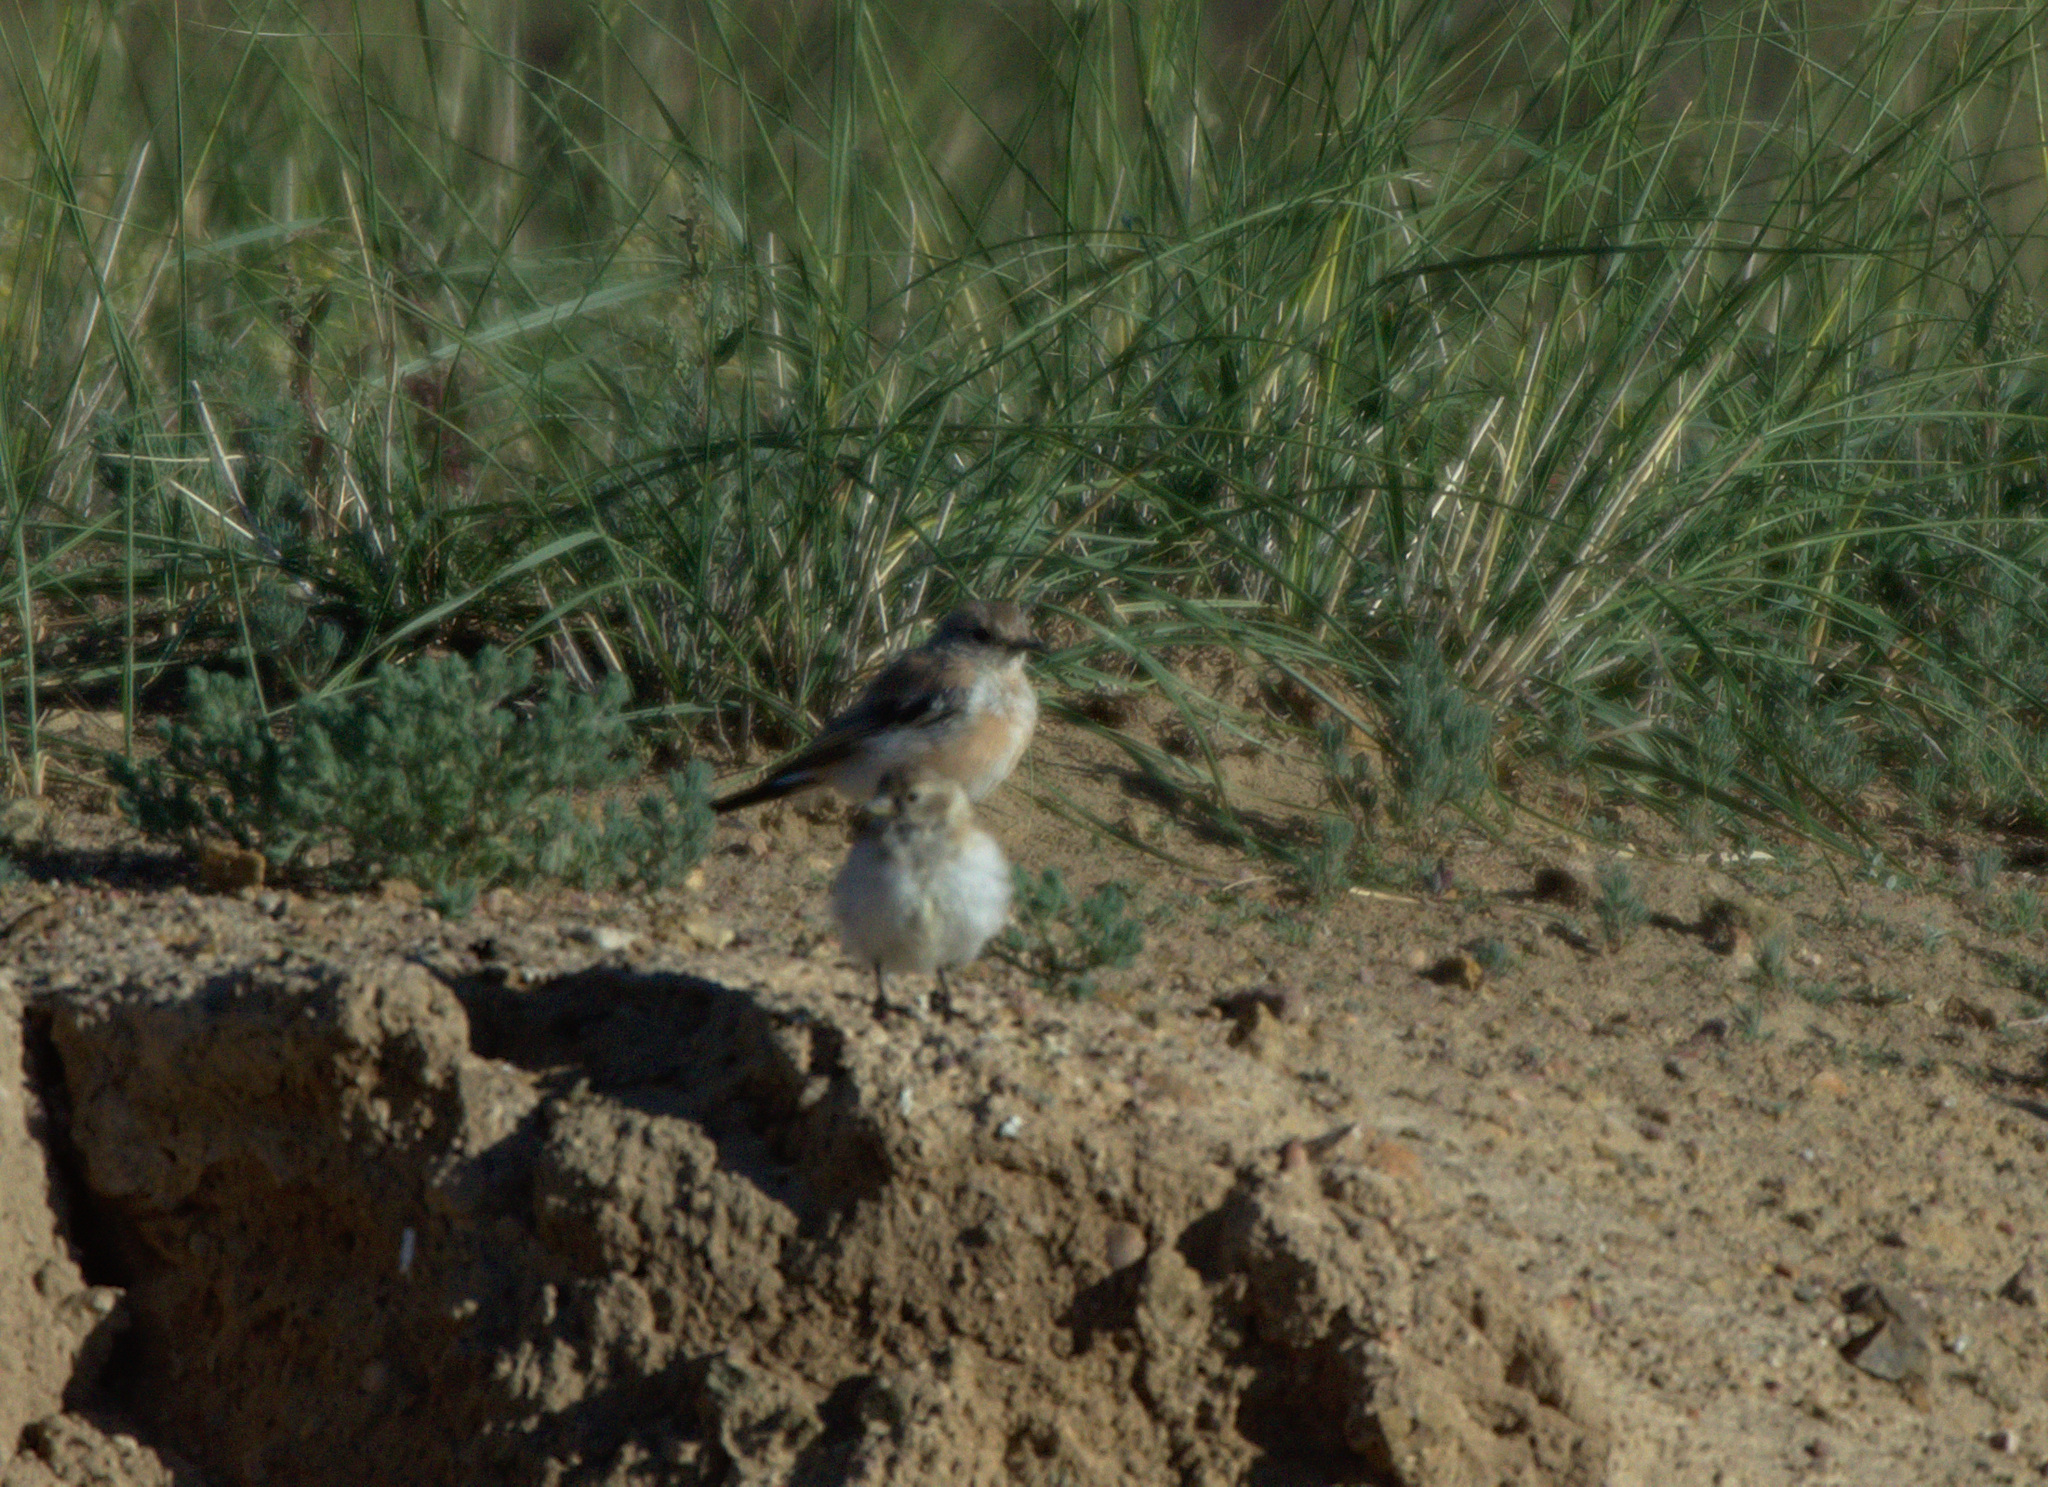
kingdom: Animalia
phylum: Chordata
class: Aves
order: Passeriformes
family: Muscicapidae
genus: Oenanthe
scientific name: Oenanthe oenanthe
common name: Northern wheatear
